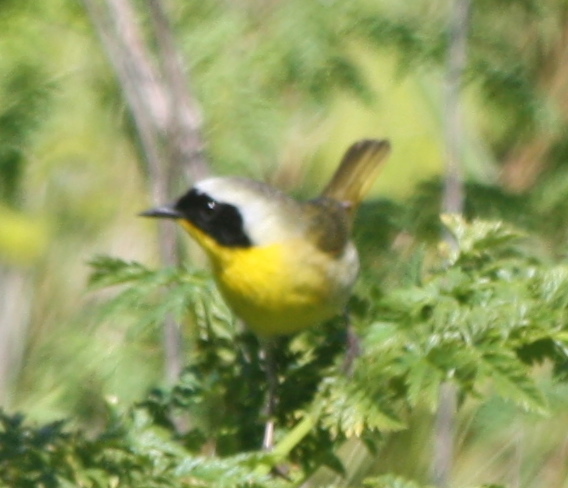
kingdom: Animalia
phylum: Chordata
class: Aves
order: Passeriformes
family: Parulidae
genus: Geothlypis
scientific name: Geothlypis trichas
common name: Common yellowthroat
